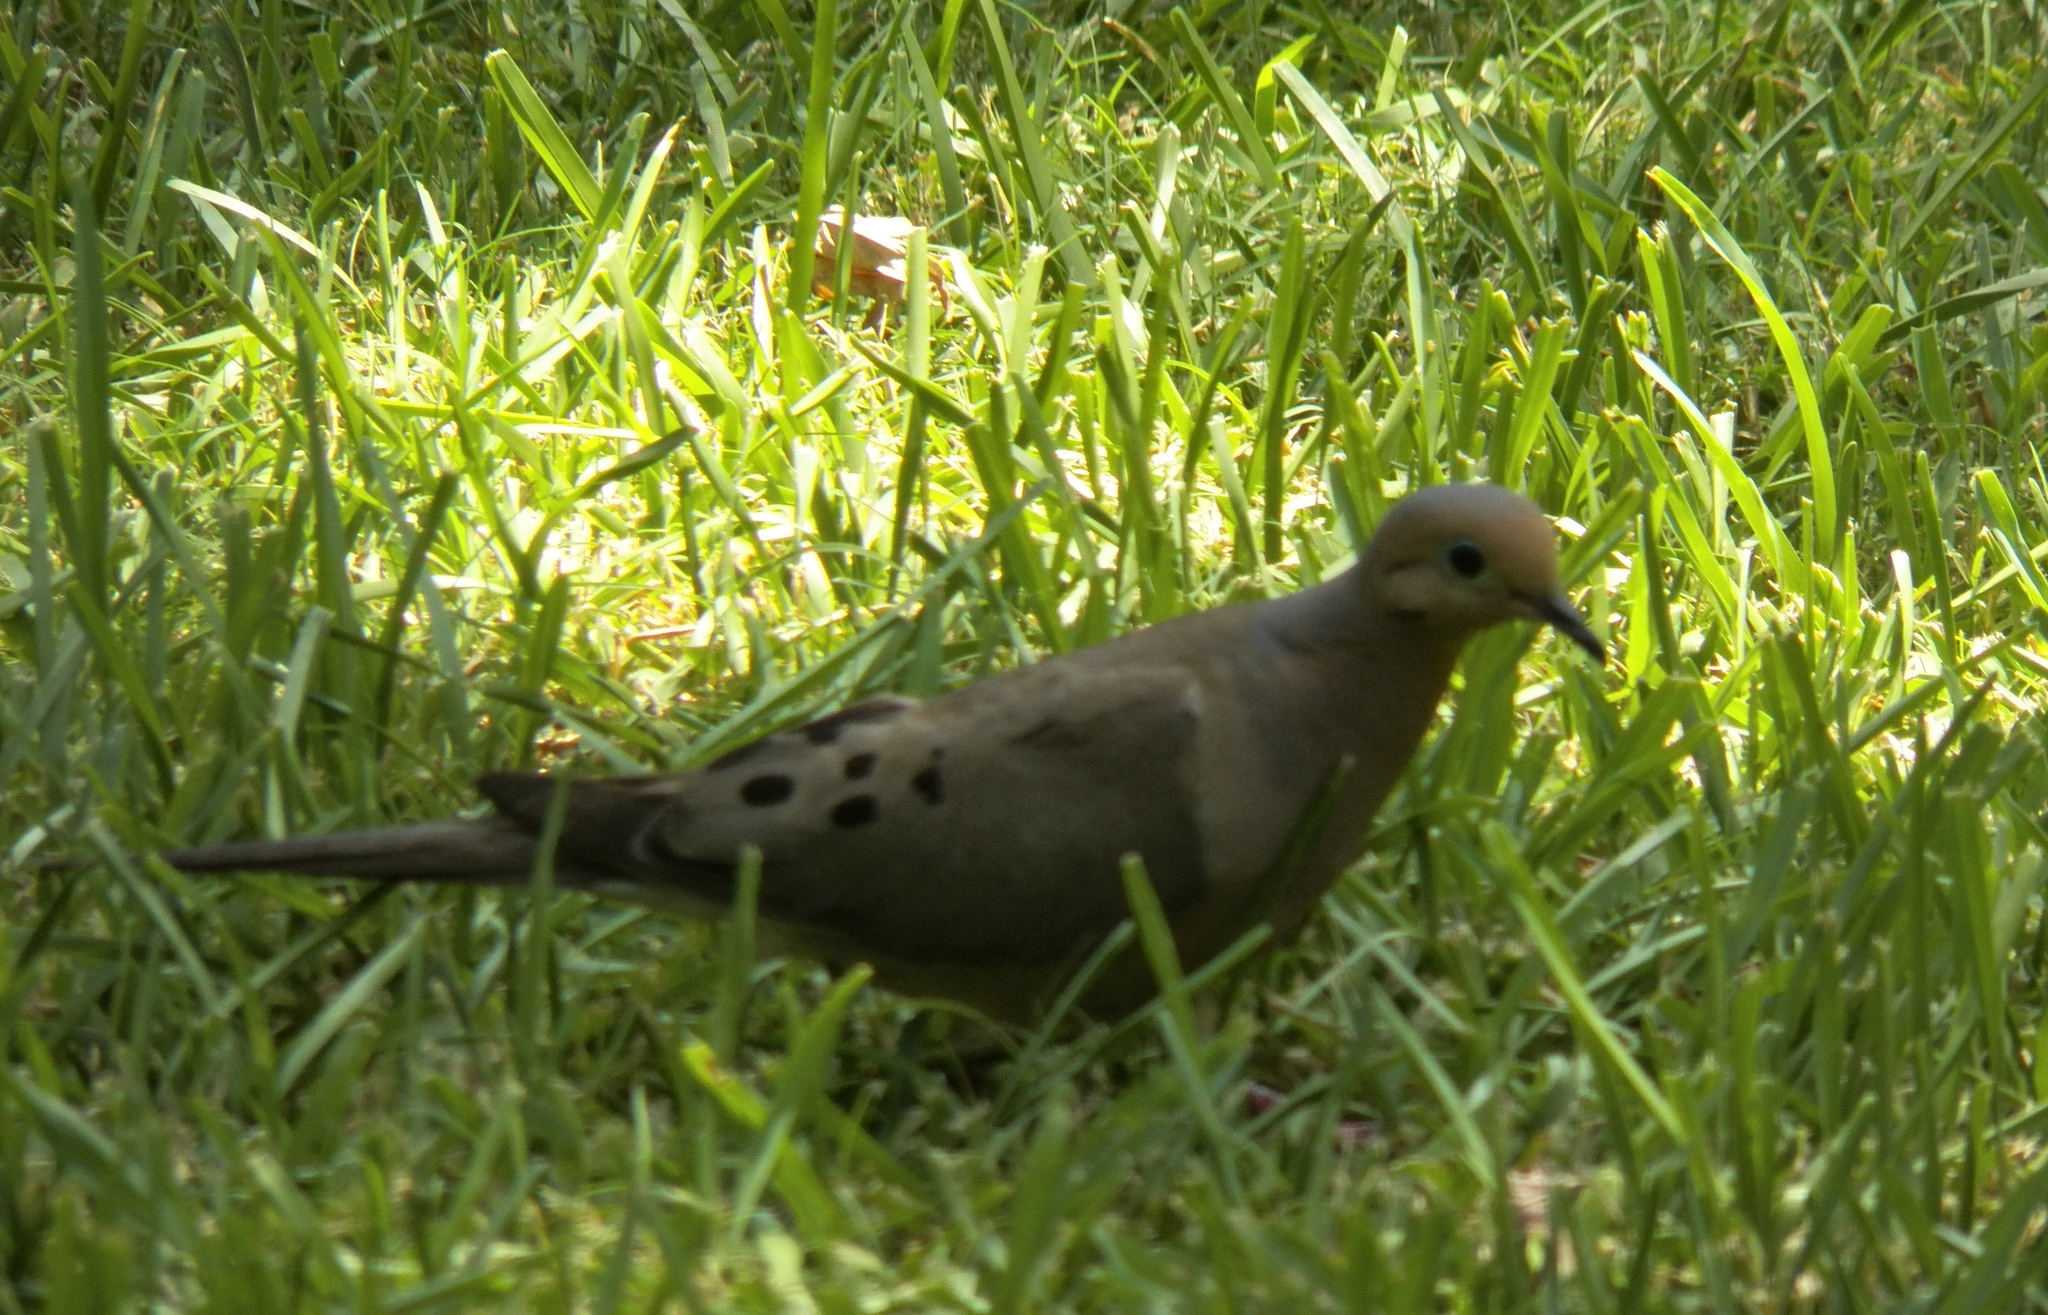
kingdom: Animalia
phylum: Chordata
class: Aves
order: Columbiformes
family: Columbidae
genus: Zenaida
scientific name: Zenaida macroura
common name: Mourning dove
